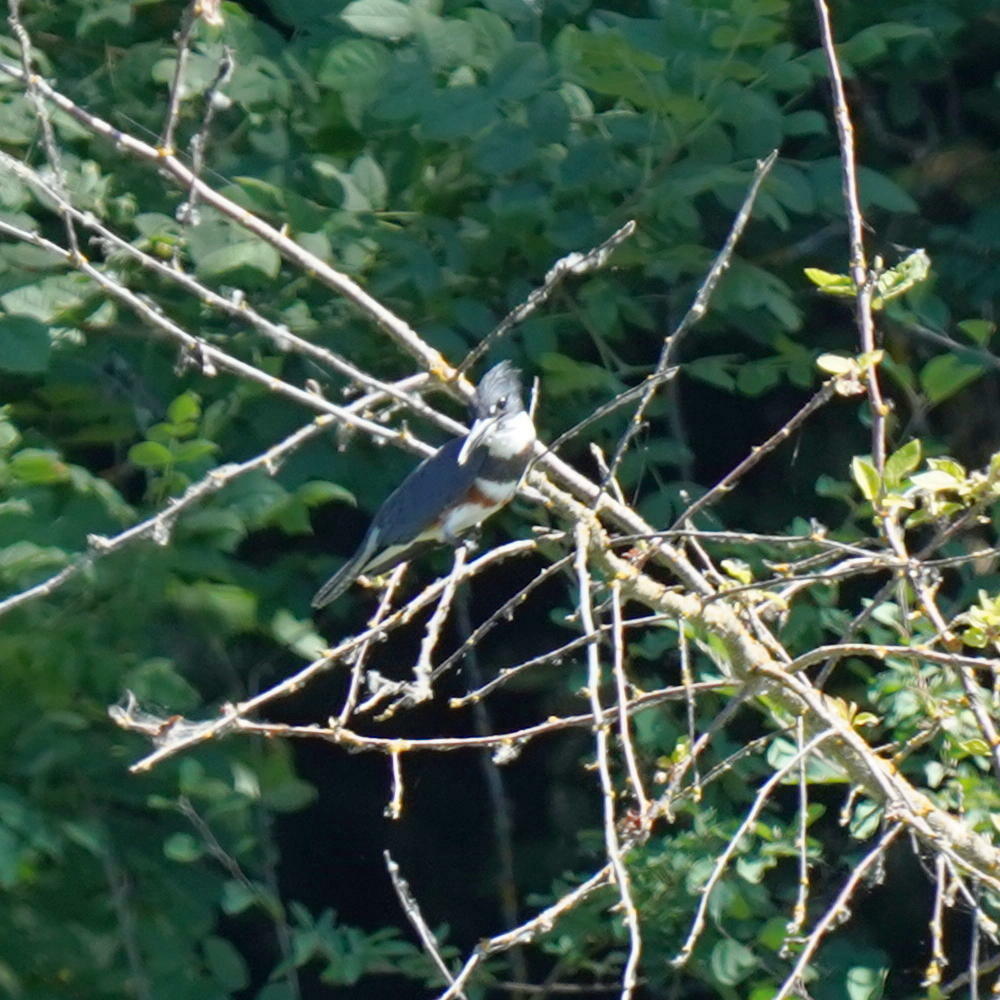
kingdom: Animalia
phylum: Chordata
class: Aves
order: Coraciiformes
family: Alcedinidae
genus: Megaceryle
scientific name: Megaceryle alcyon
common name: Belted kingfisher
